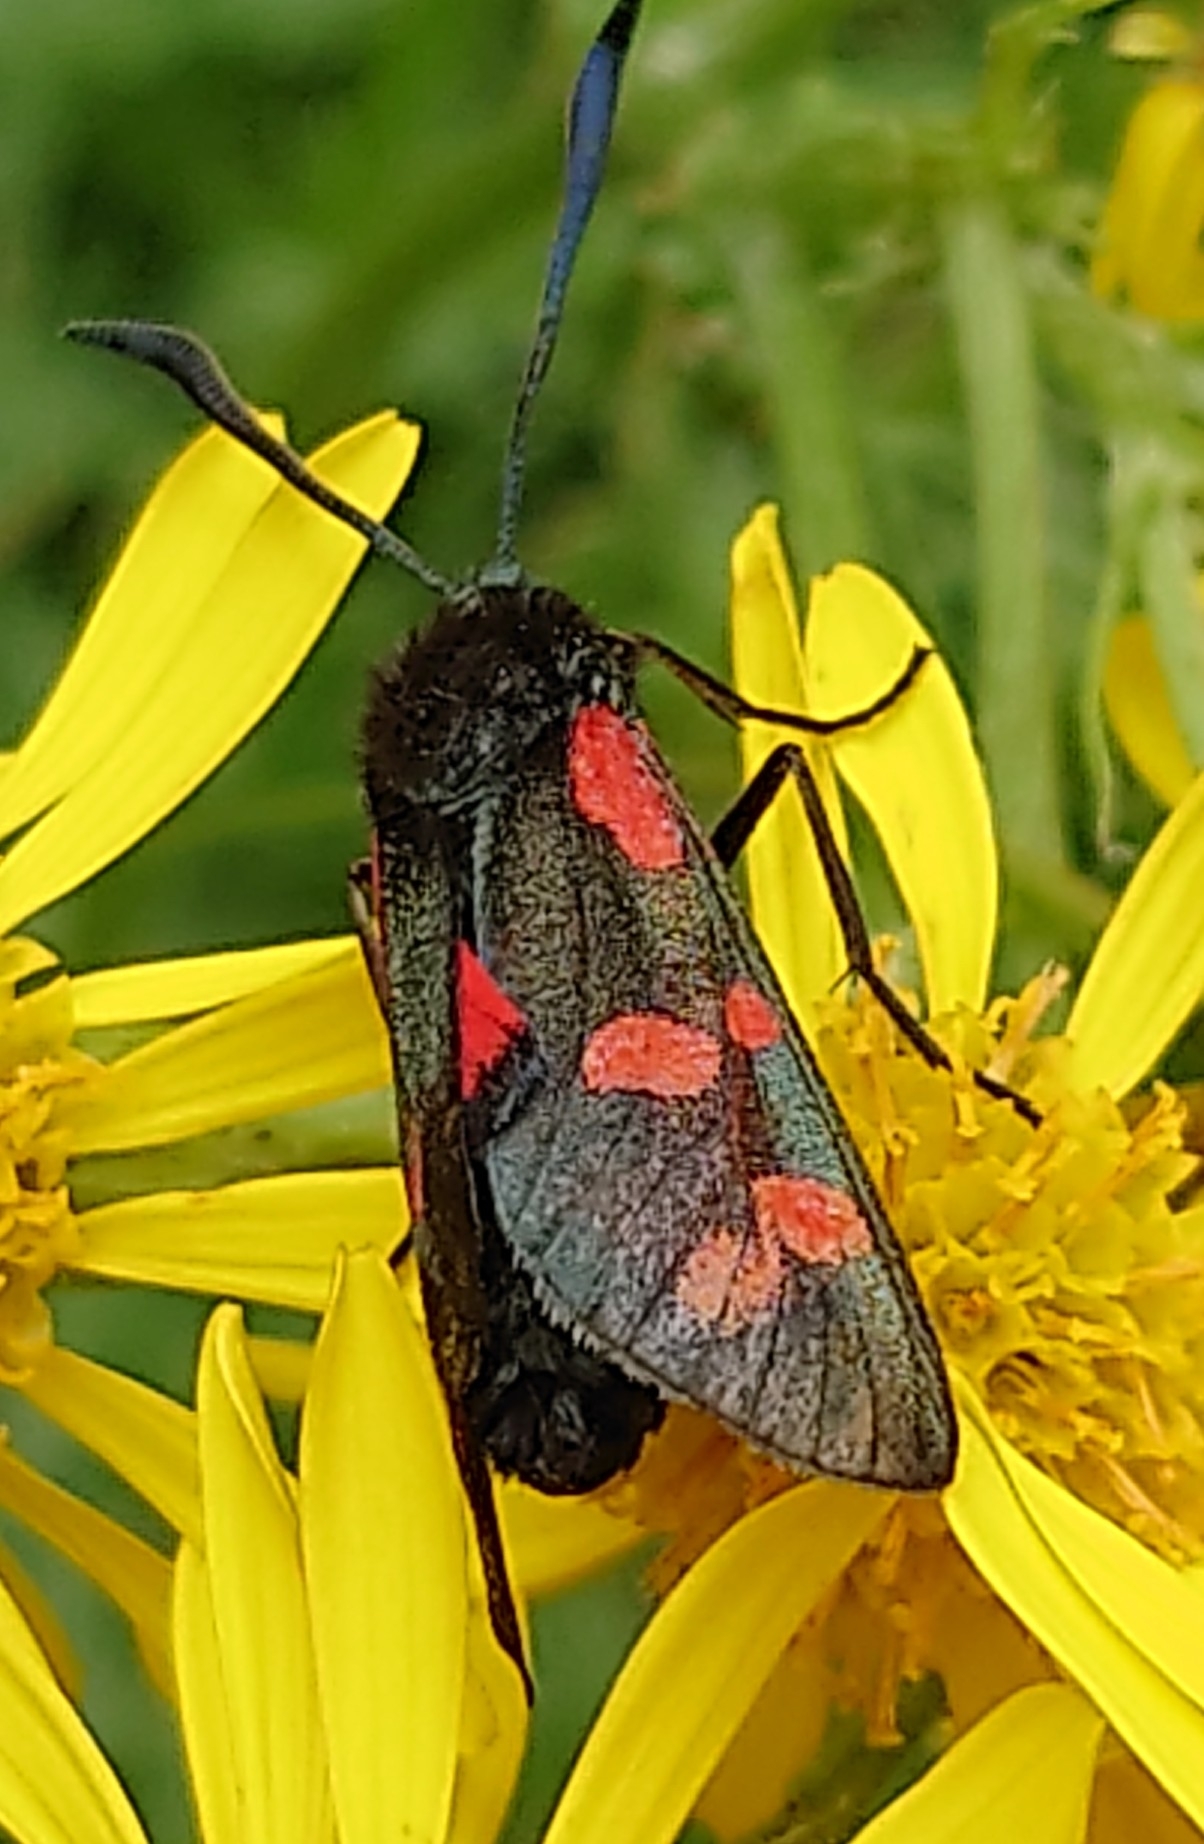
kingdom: Animalia
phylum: Arthropoda
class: Insecta
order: Lepidoptera
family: Zygaenidae
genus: Zygaena
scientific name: Zygaena filipendulae
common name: Six-spot burnet
